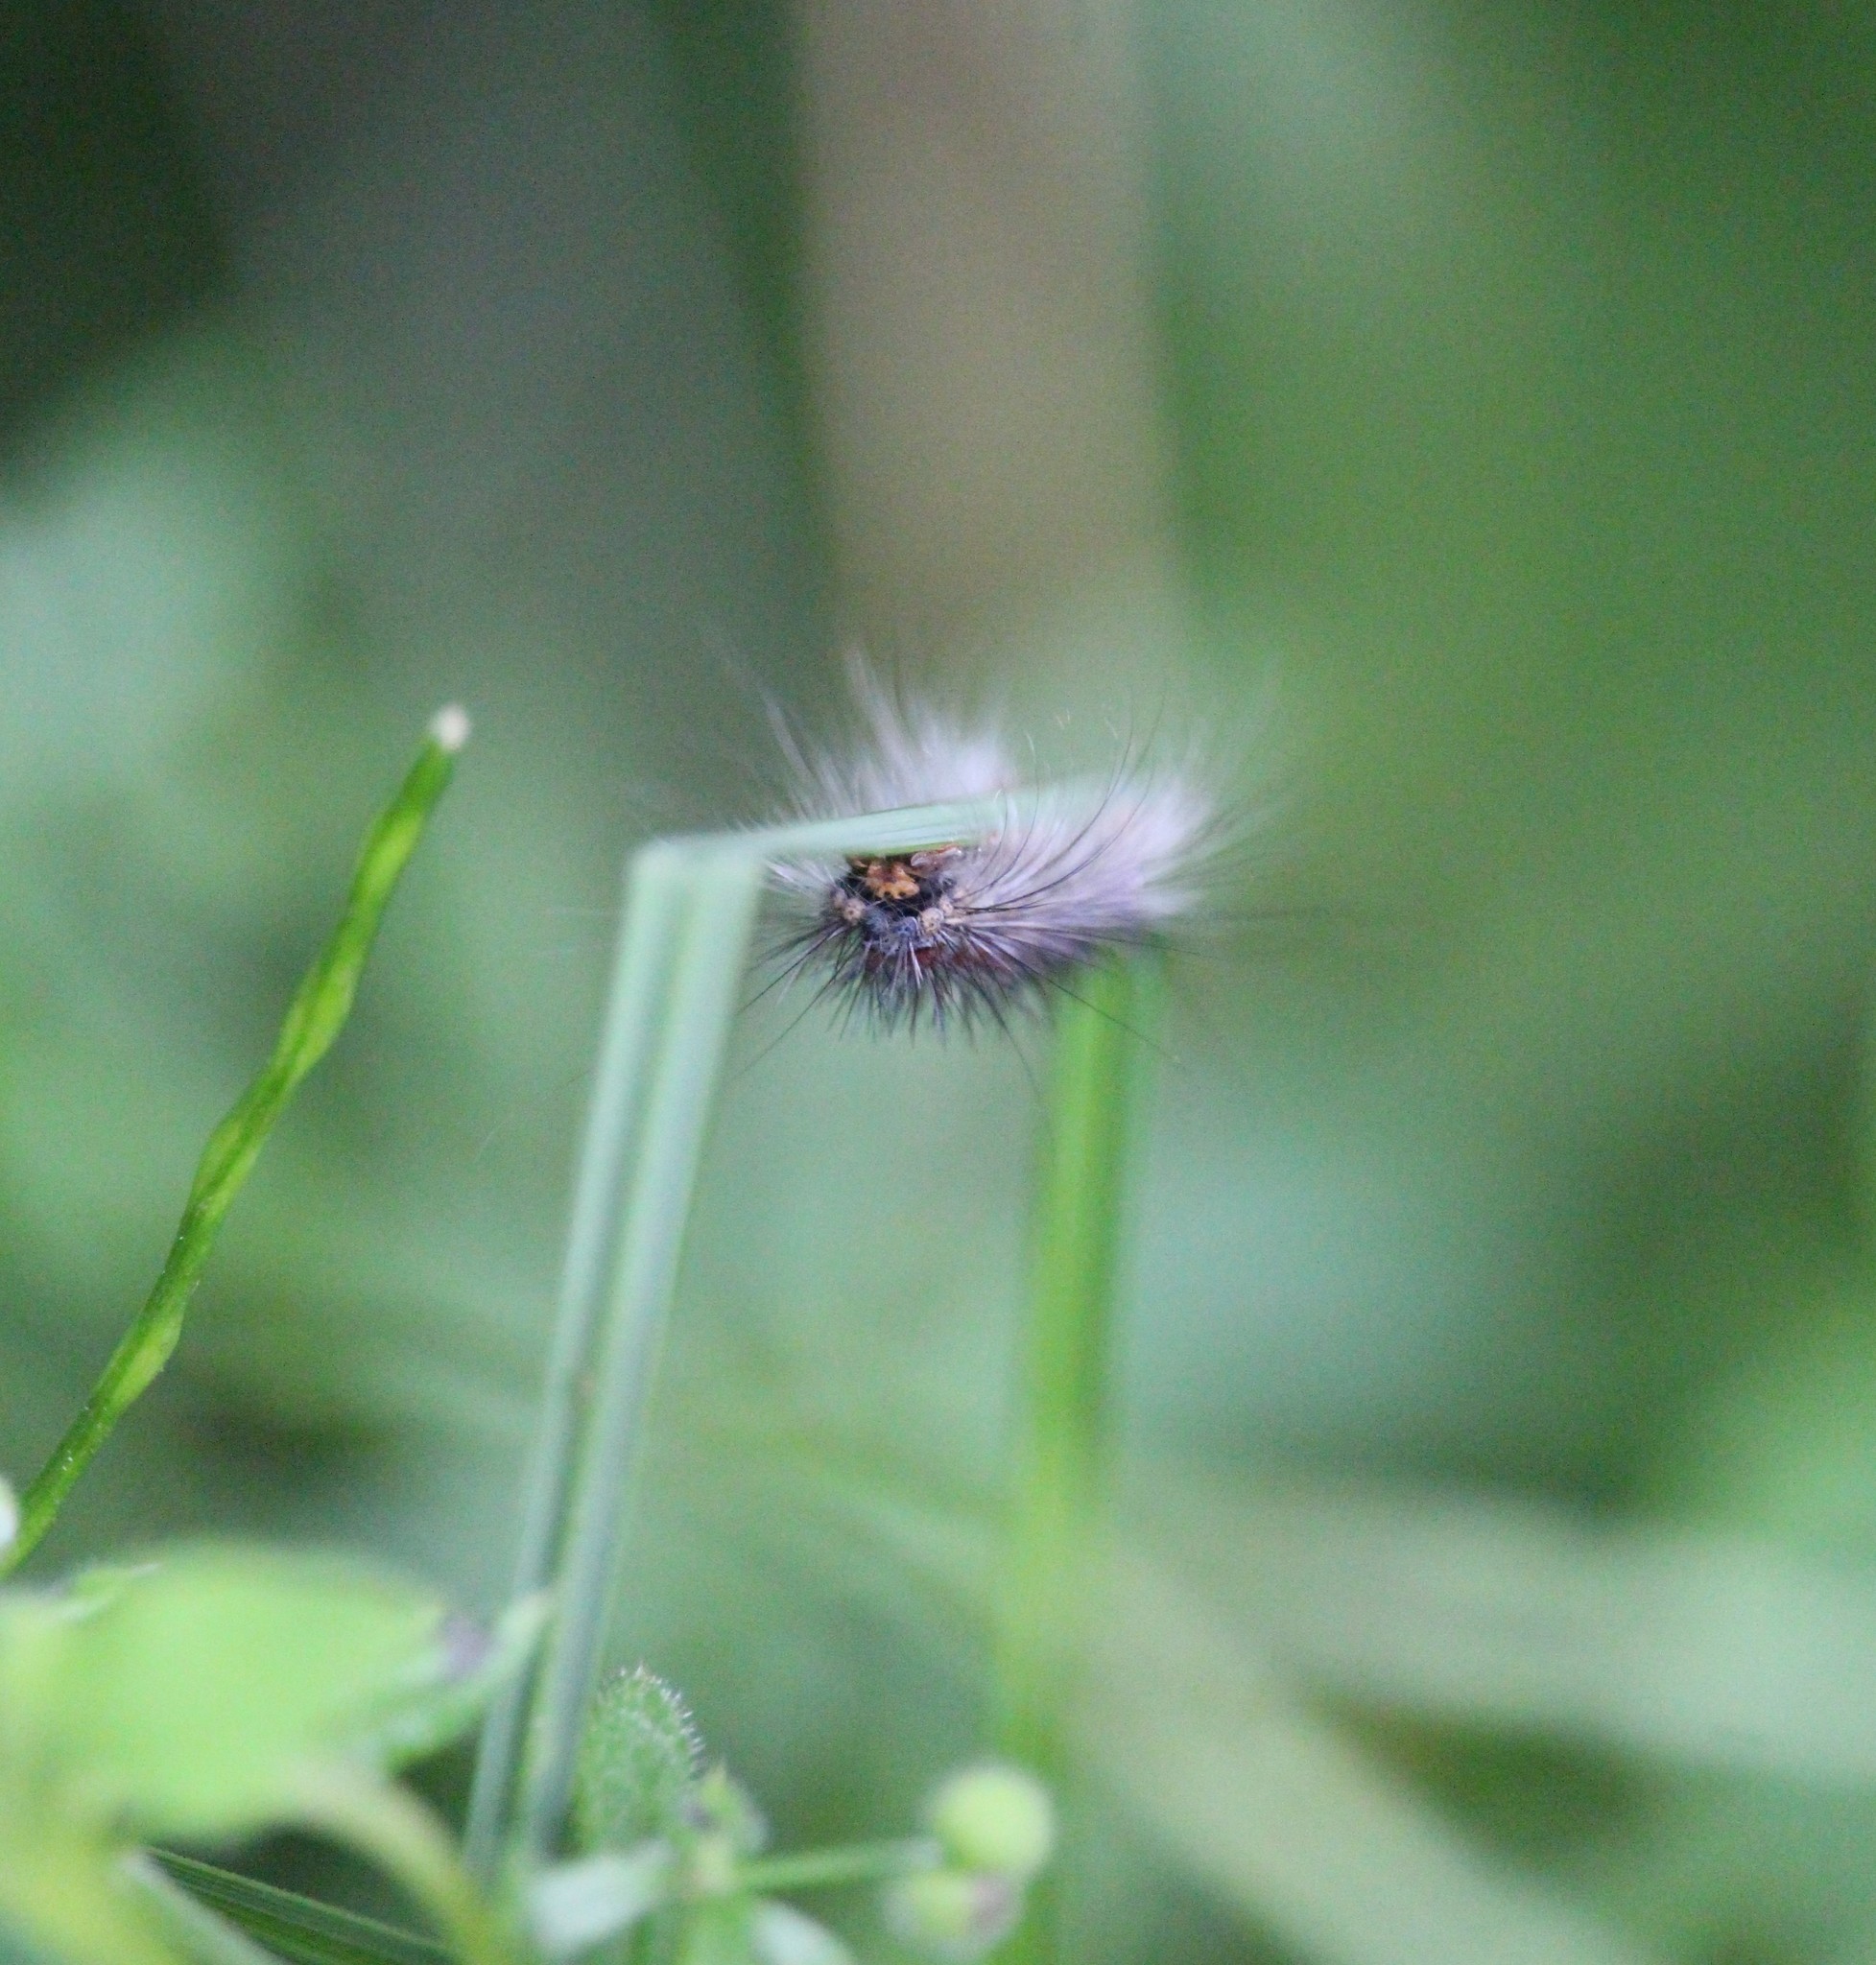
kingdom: Animalia
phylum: Arthropoda
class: Insecta
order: Lepidoptera
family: Erebidae
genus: Lymantria
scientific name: Lymantria dispar
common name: Gypsy moth
